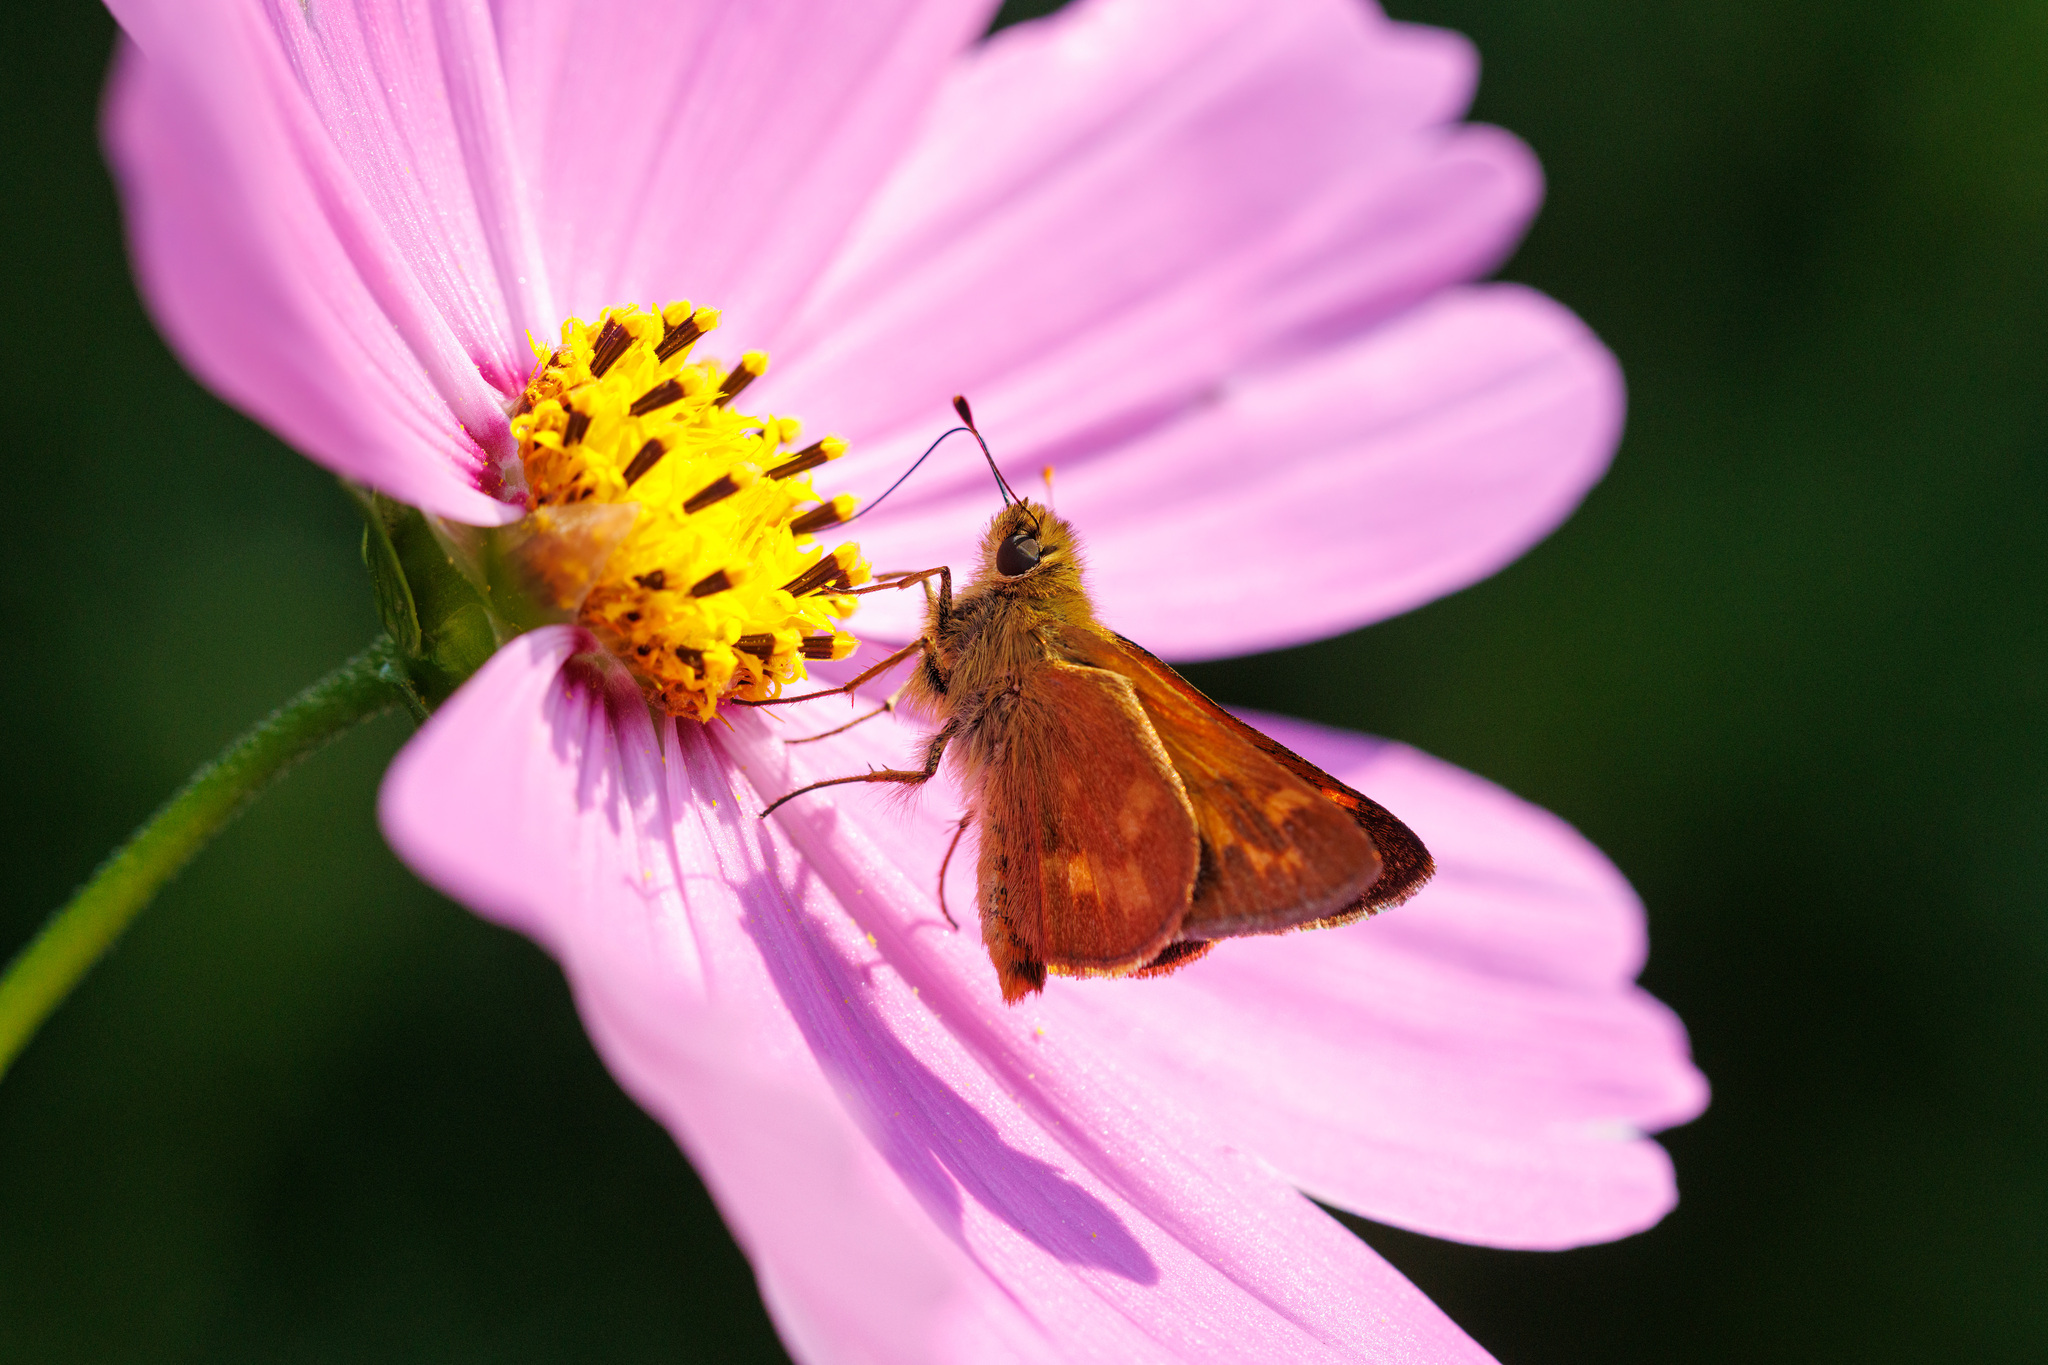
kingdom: Animalia
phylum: Arthropoda
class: Insecta
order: Lepidoptera
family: Hesperiidae
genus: Ochlodes
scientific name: Ochlodes sylvanoides
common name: Woodland skipper
